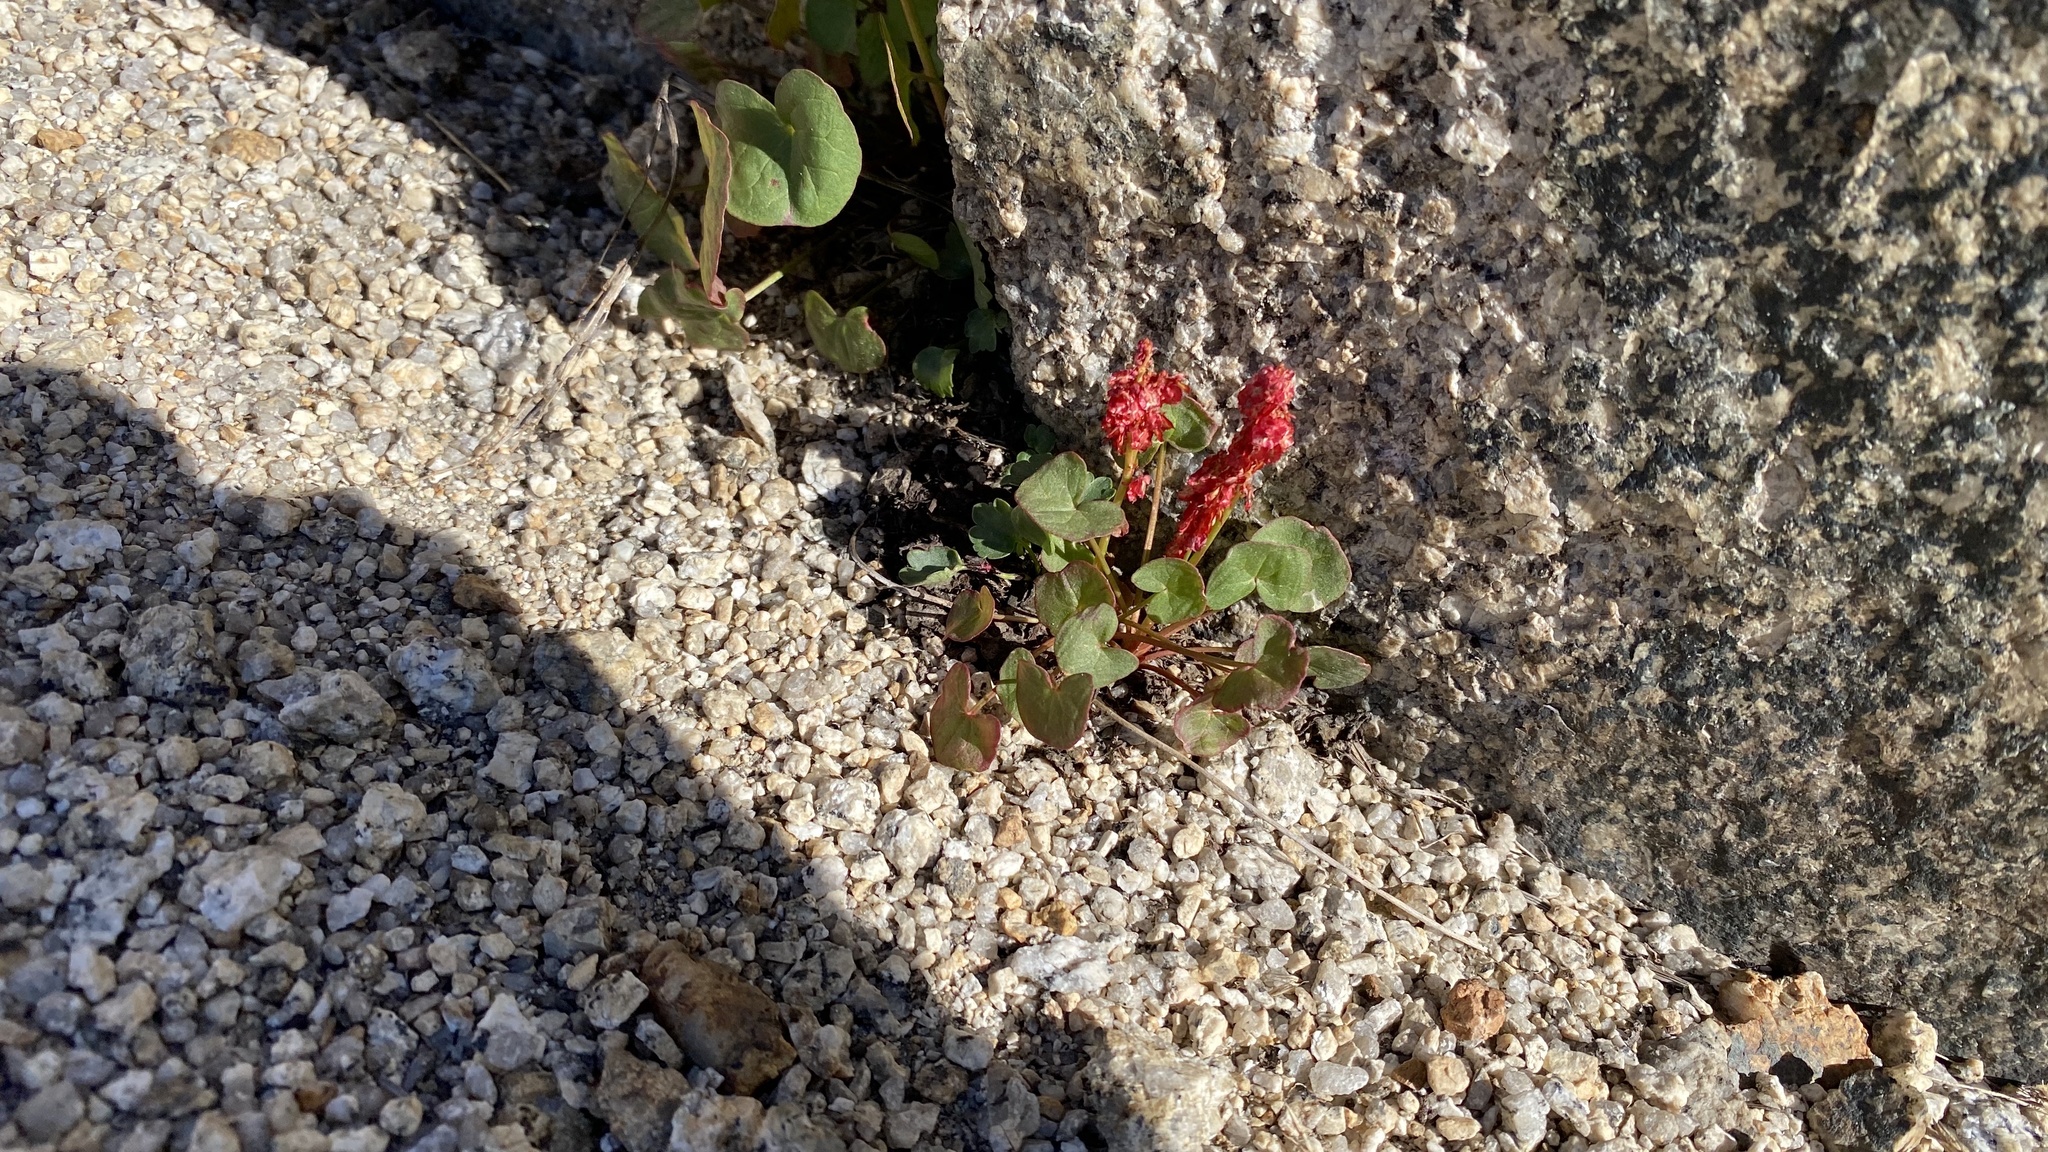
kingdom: Plantae
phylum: Tracheophyta
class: Magnoliopsida
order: Caryophyllales
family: Polygonaceae
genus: Oxyria
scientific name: Oxyria digyna
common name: Alpine mountain-sorrel
